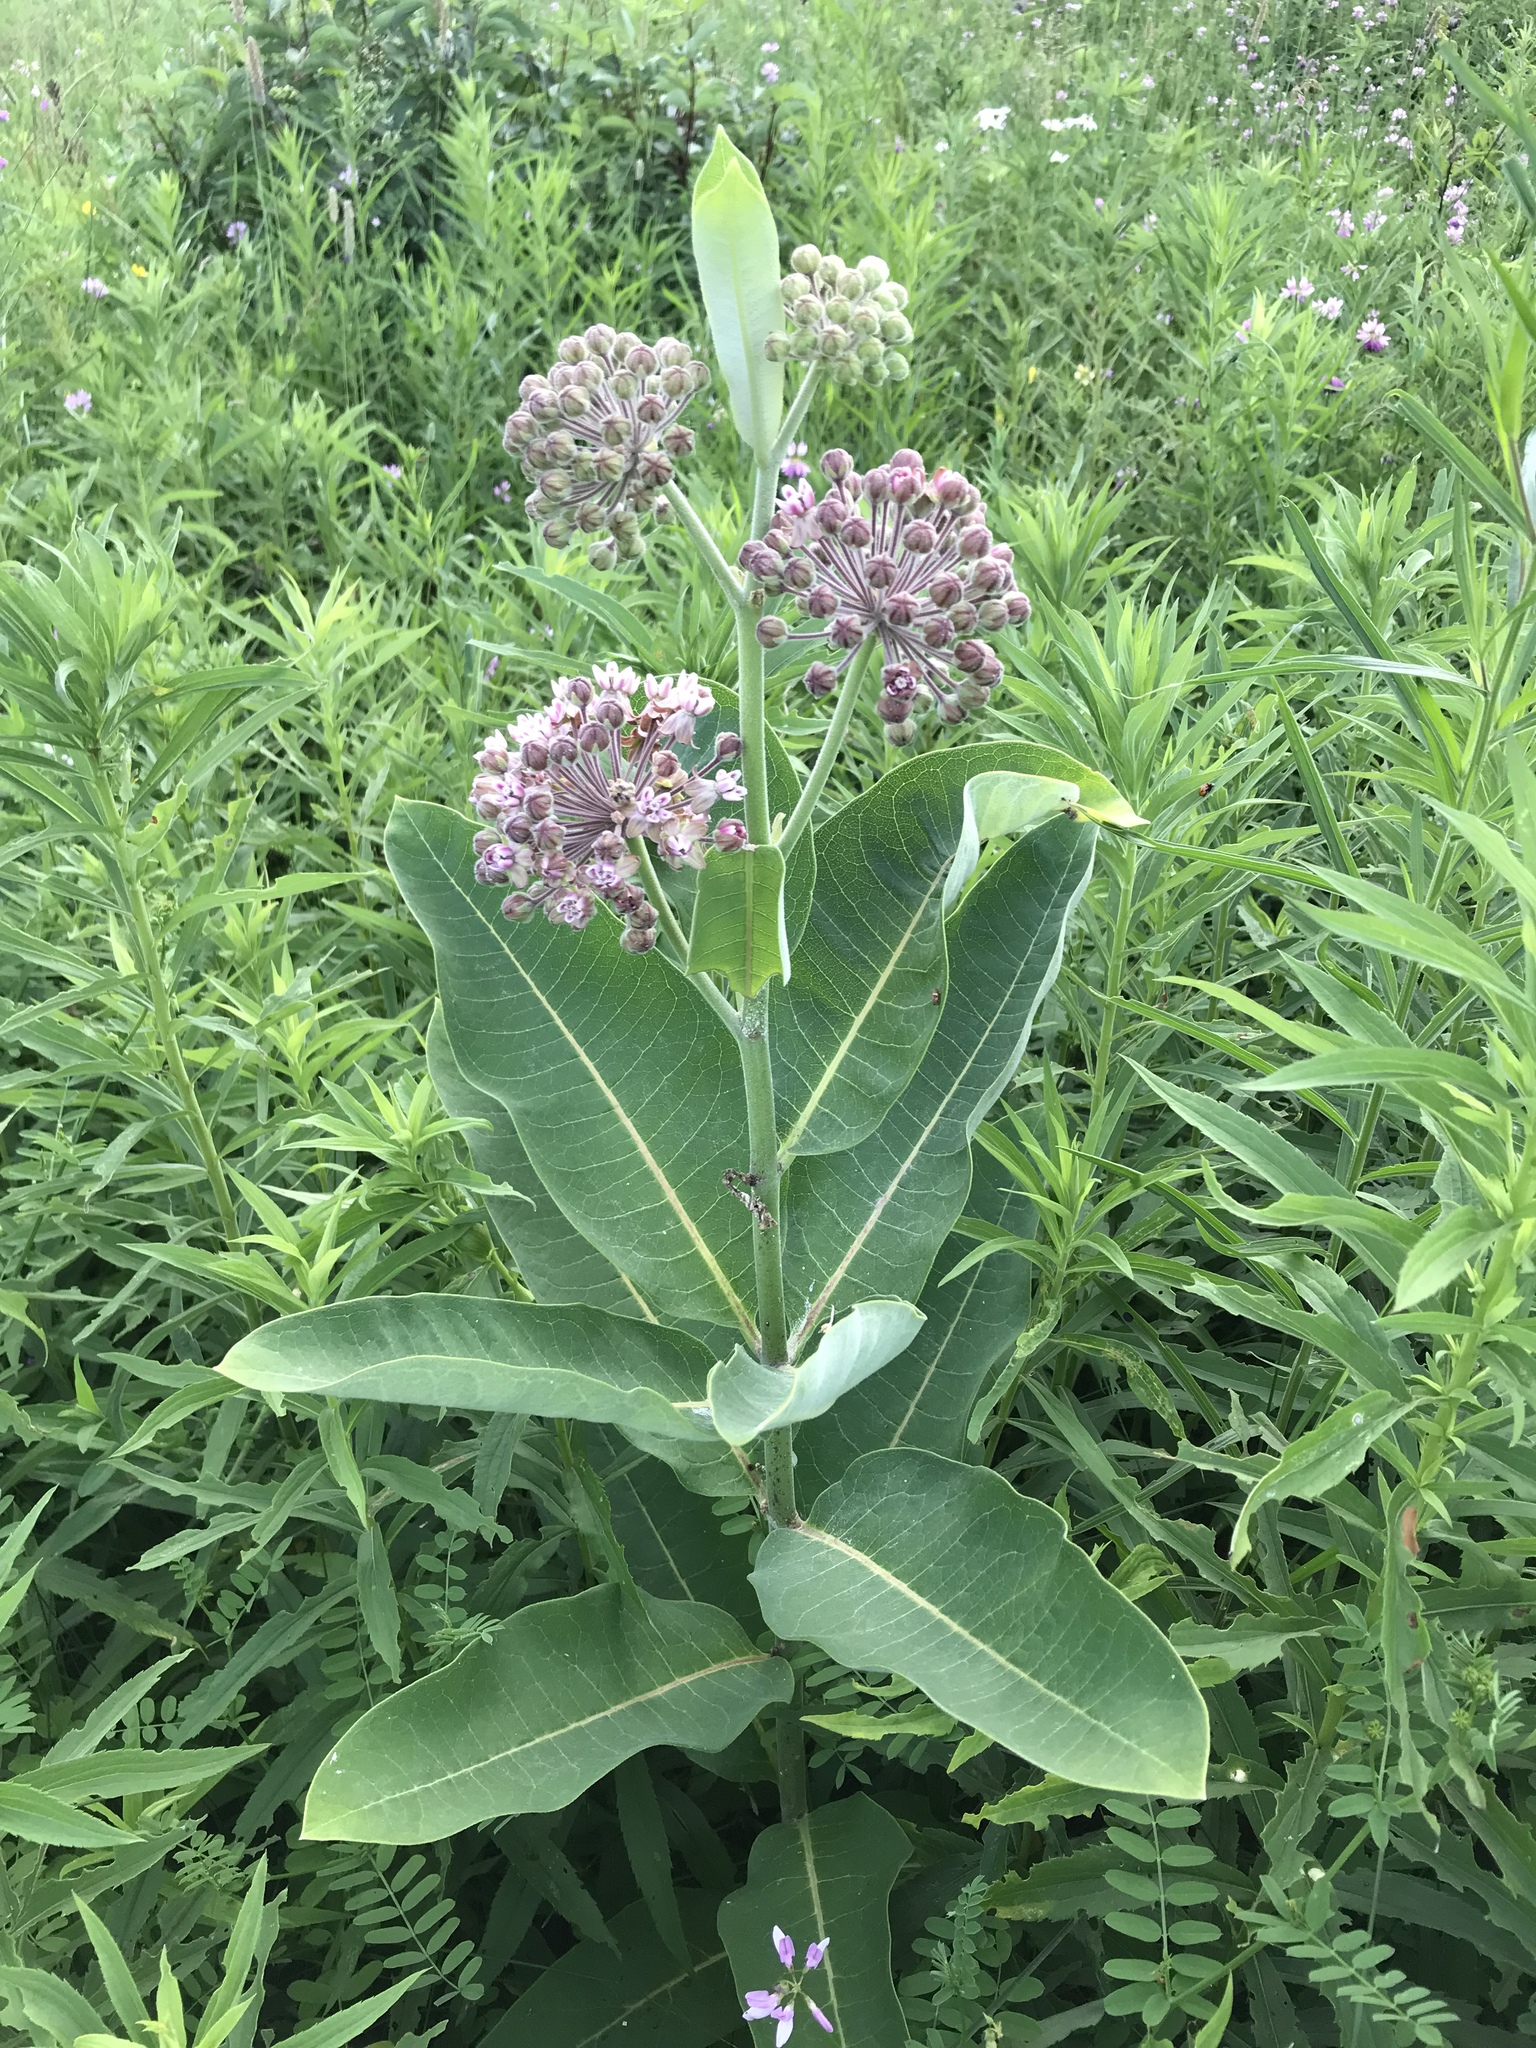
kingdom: Plantae
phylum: Tracheophyta
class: Magnoliopsida
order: Gentianales
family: Apocynaceae
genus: Asclepias
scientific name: Asclepias syriaca
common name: Common milkweed
